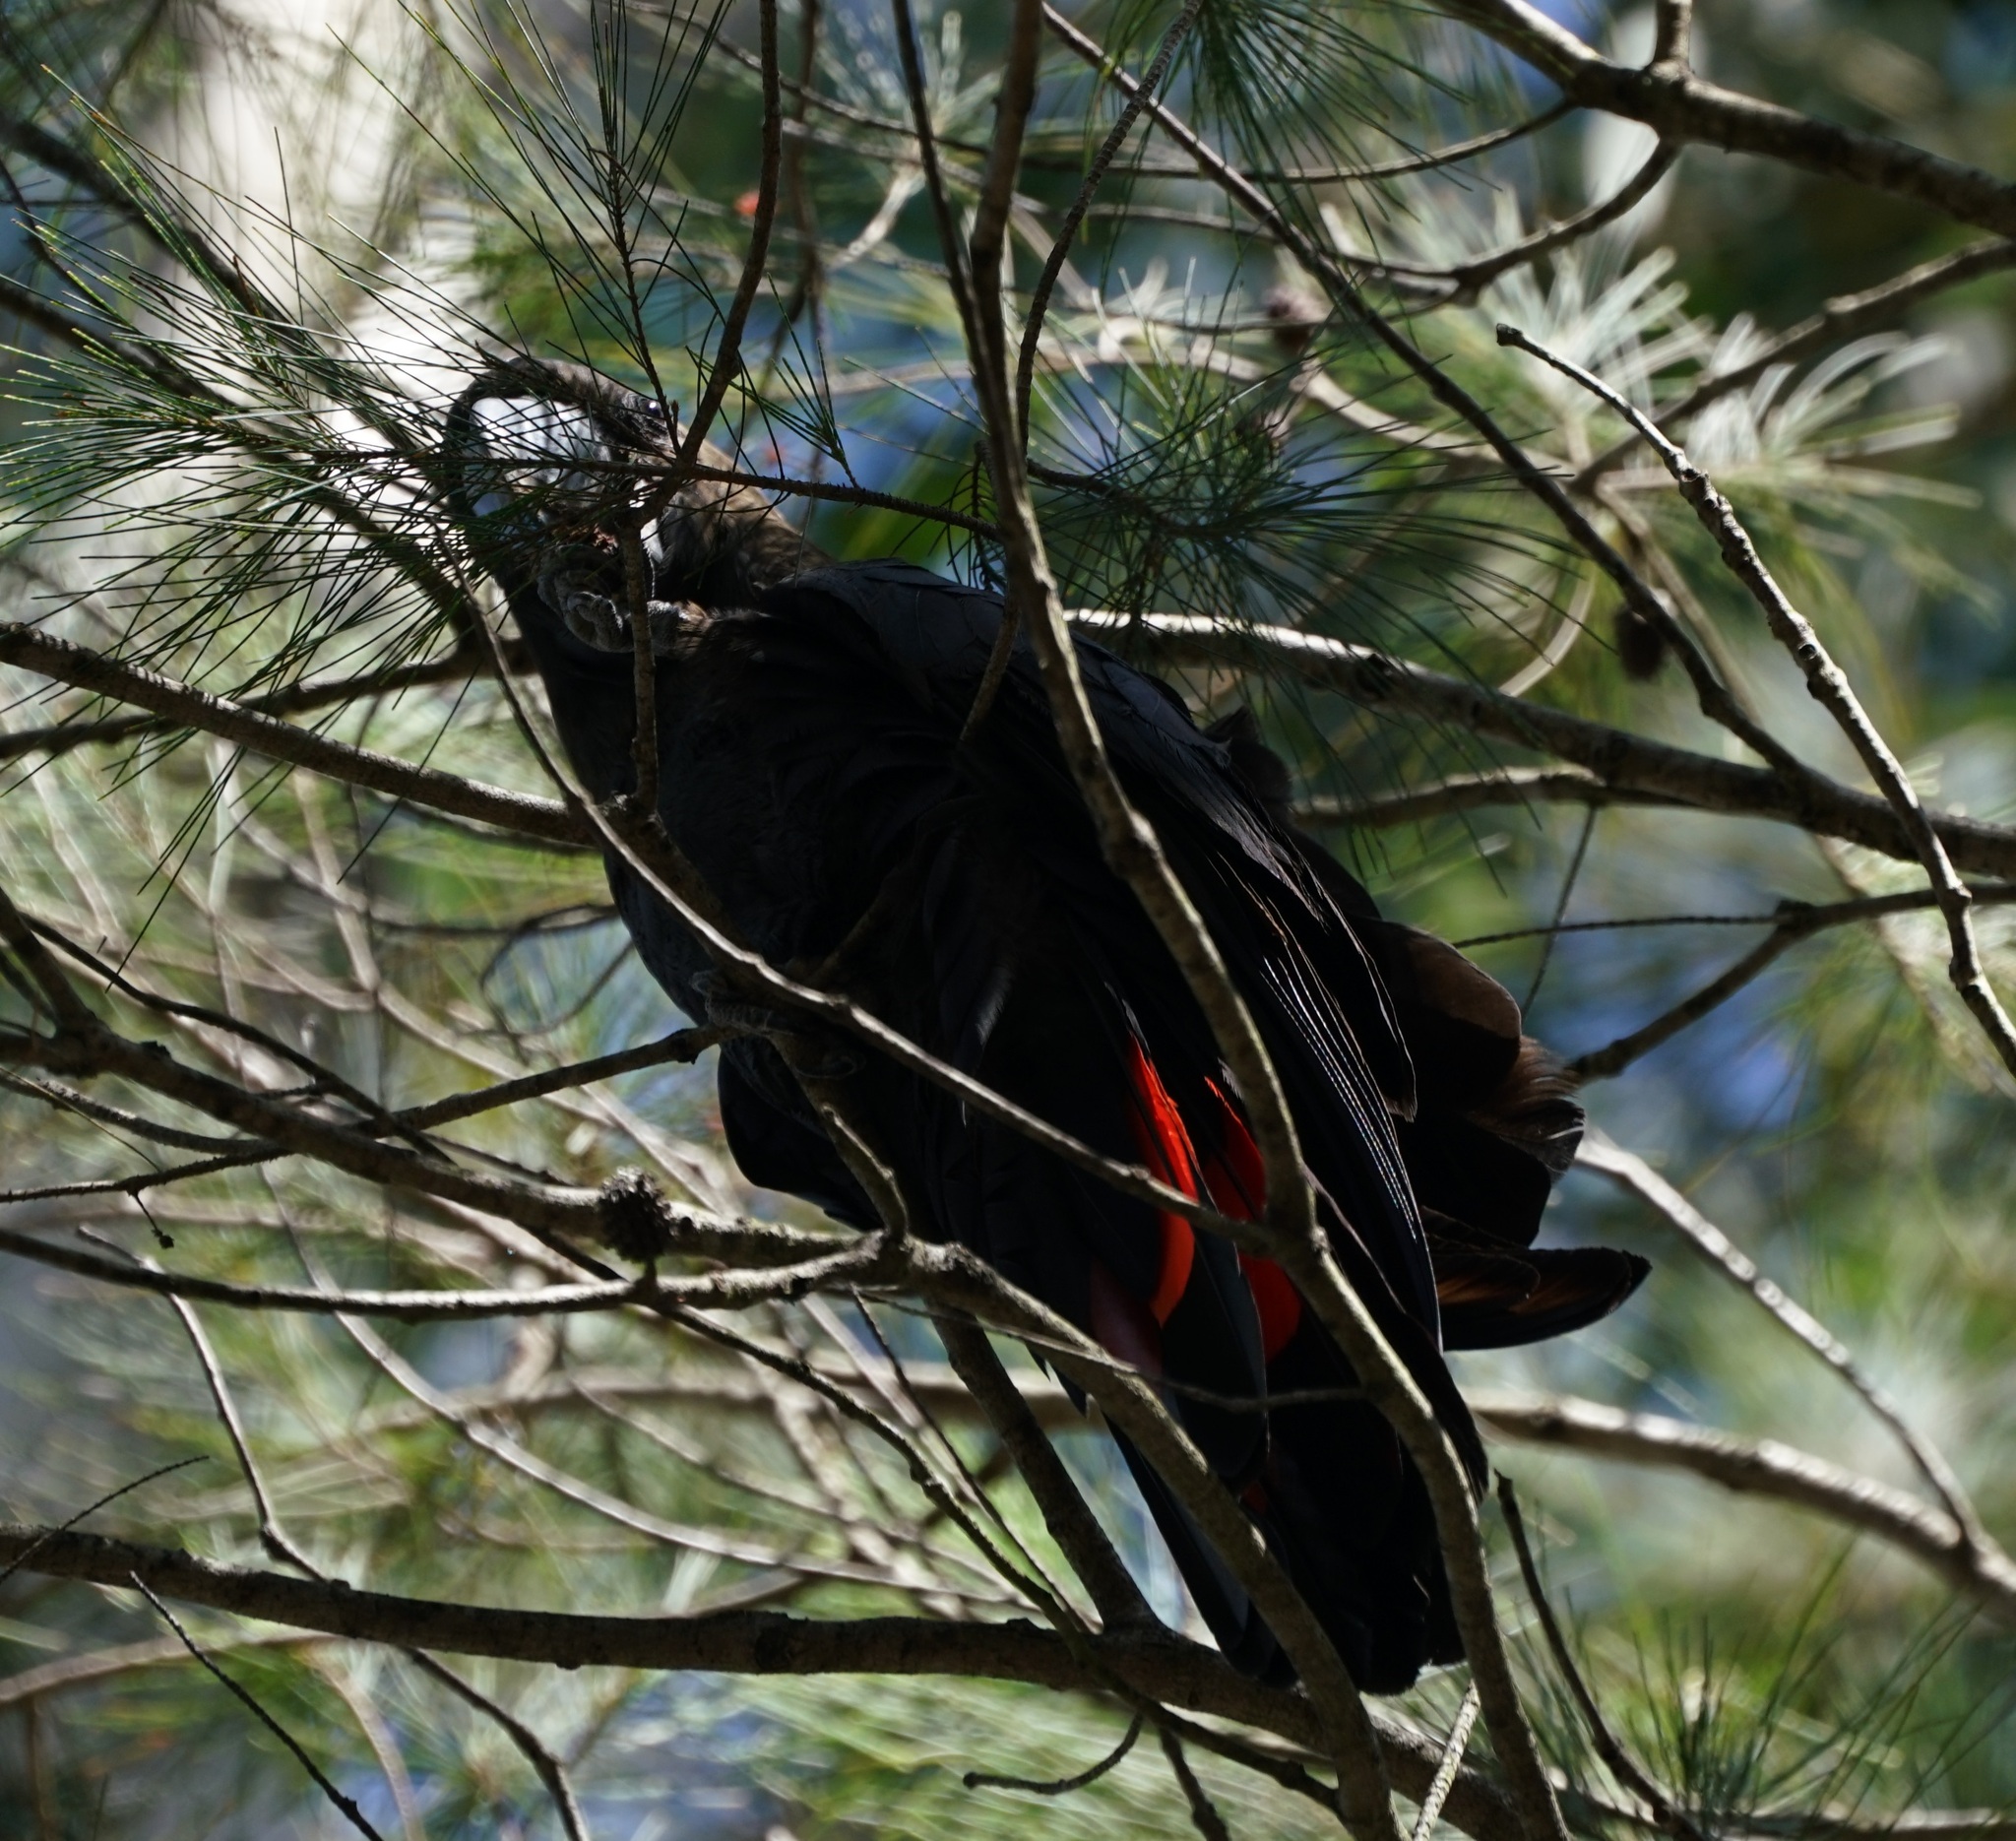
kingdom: Animalia
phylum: Chordata
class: Aves
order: Psittaciformes
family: Psittacidae
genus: Calyptorhynchus
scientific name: Calyptorhynchus lathami
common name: Glossy black cockatoo
